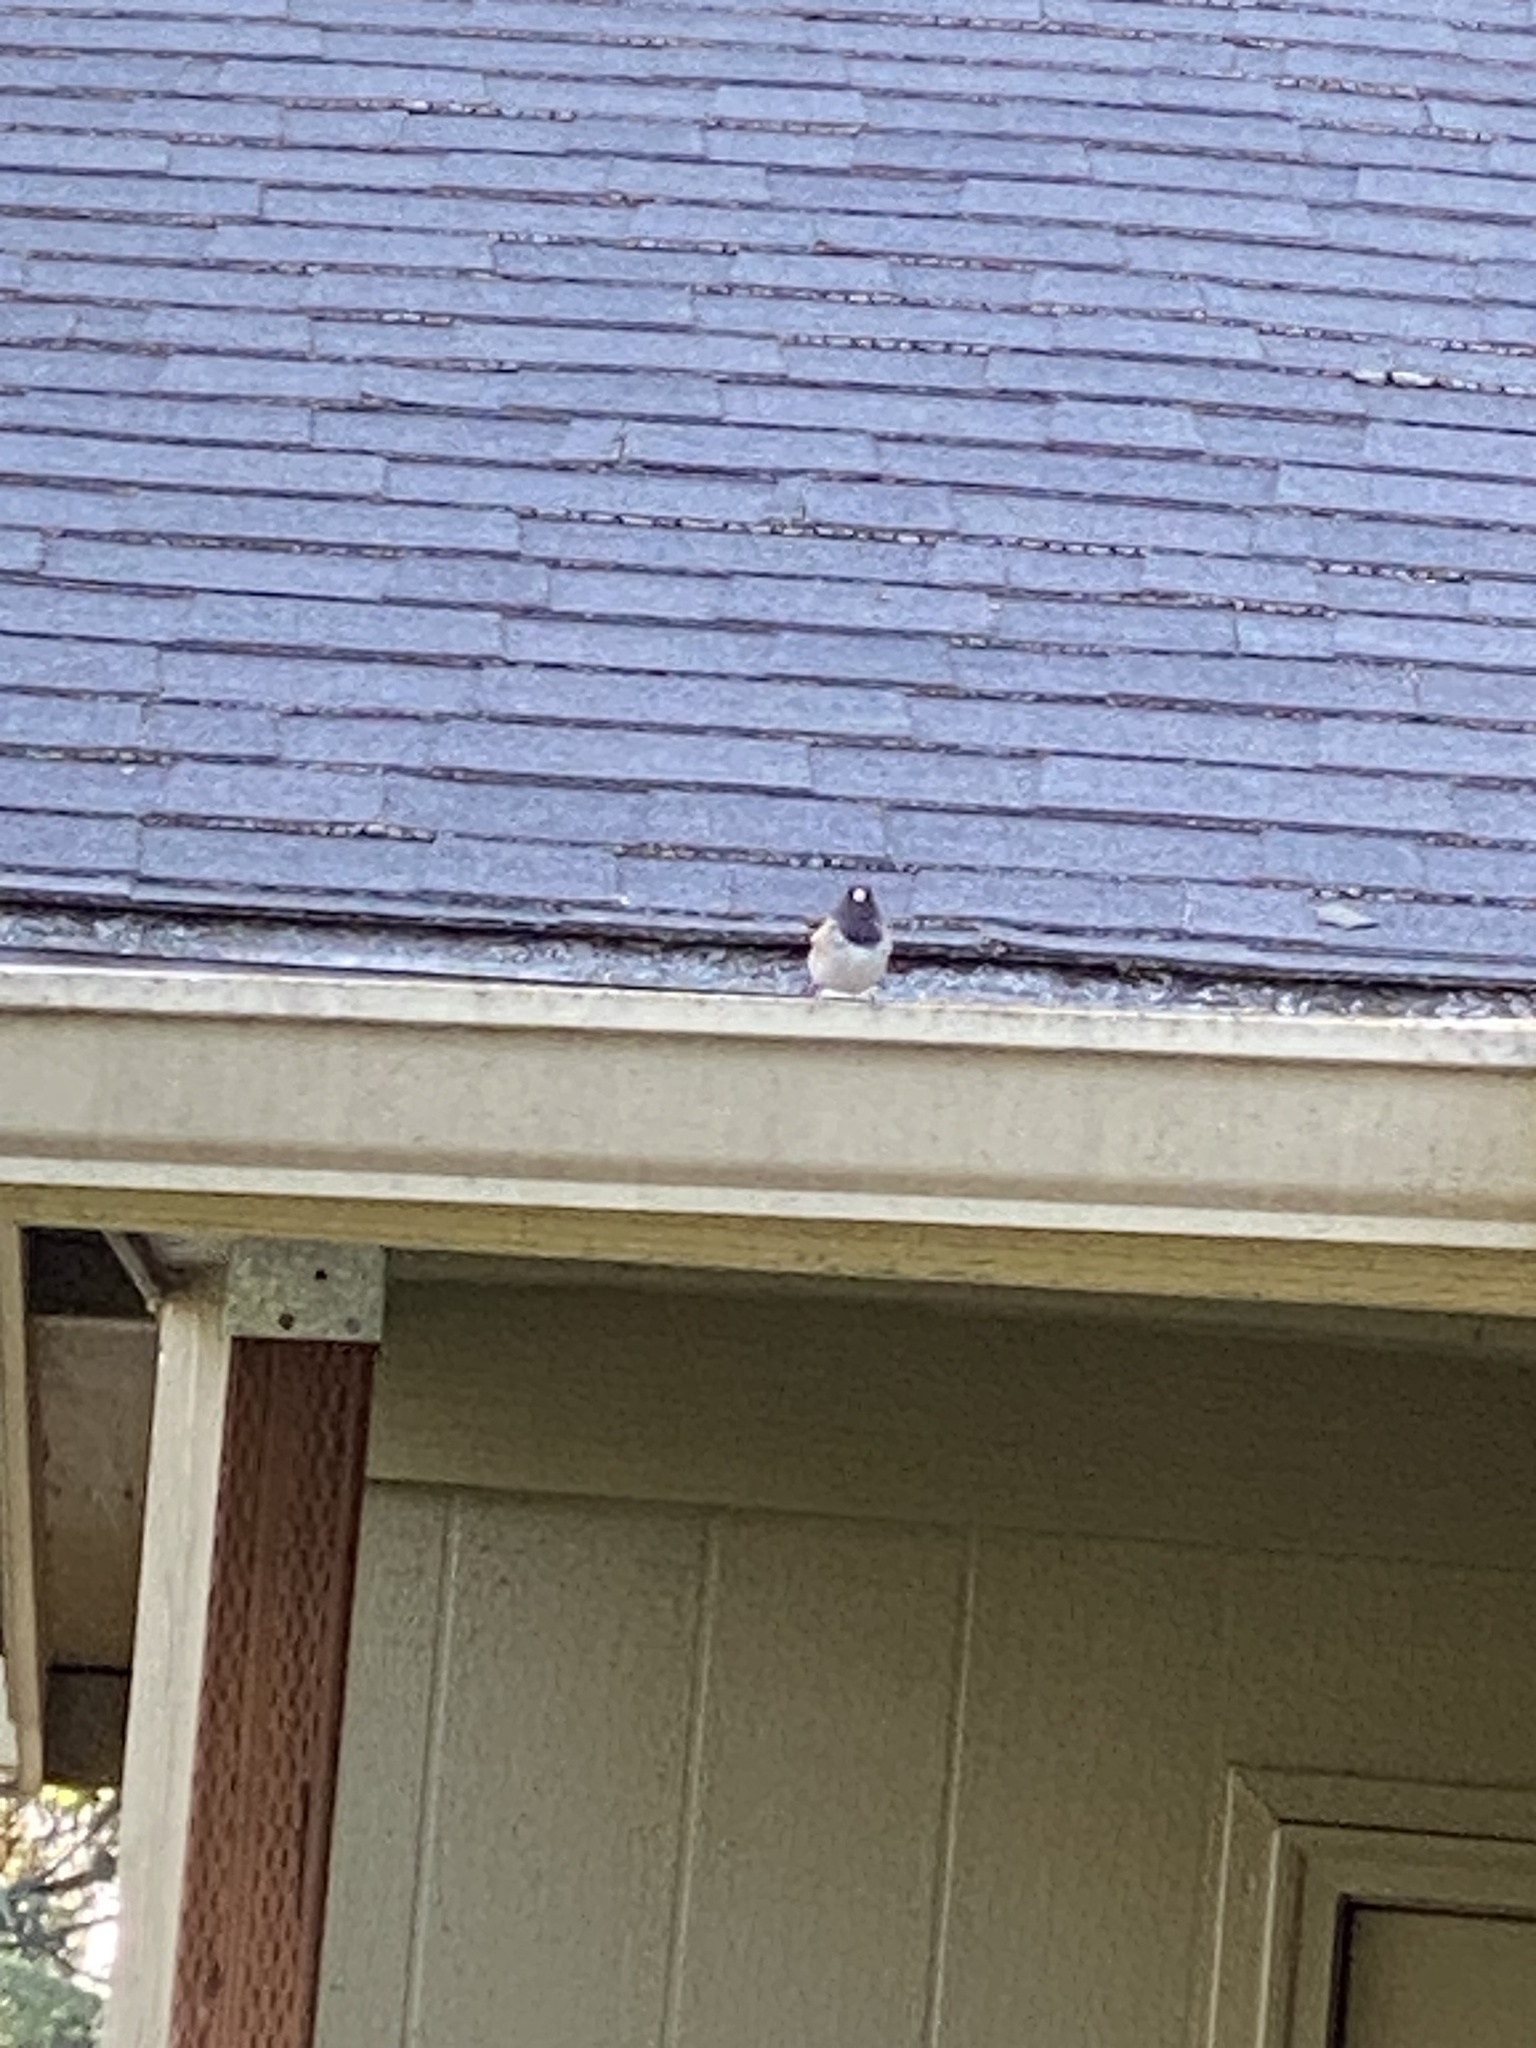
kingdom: Animalia
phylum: Chordata
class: Aves
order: Passeriformes
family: Passerellidae
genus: Junco
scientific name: Junco hyemalis
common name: Dark-eyed junco
